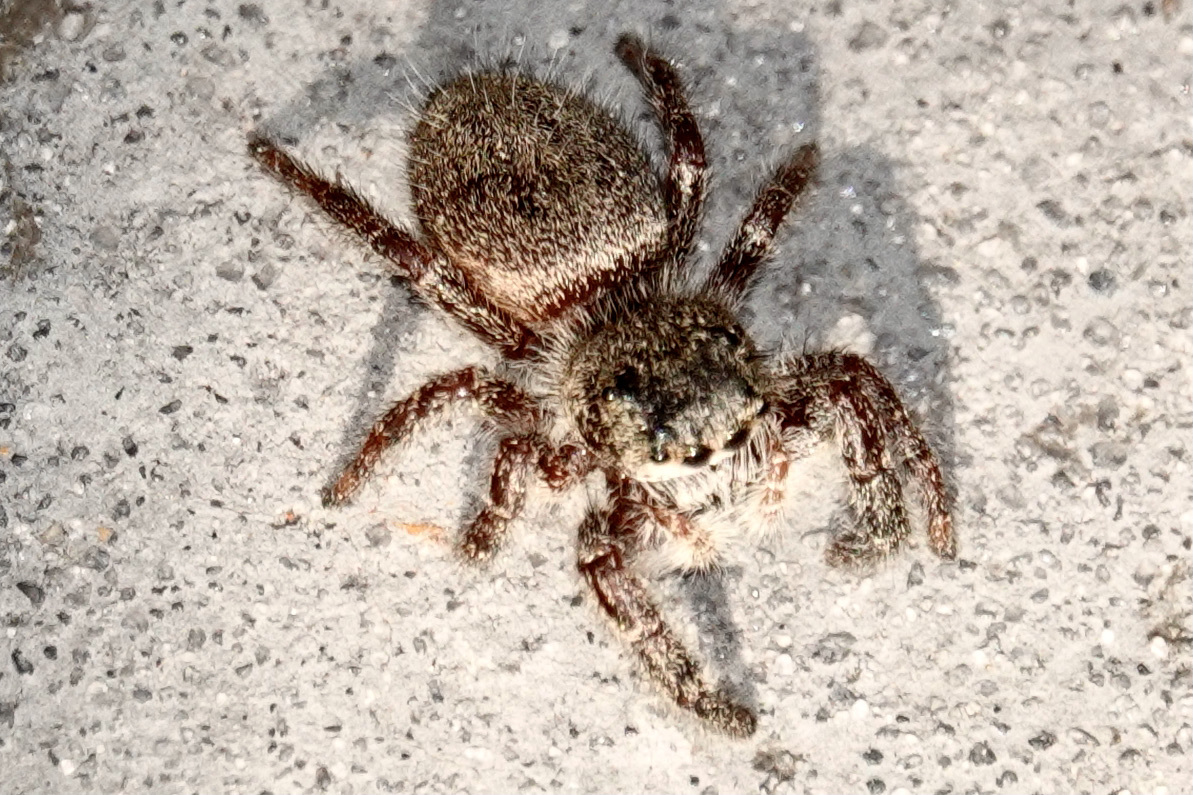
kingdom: Animalia
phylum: Arthropoda
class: Arachnida
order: Araneae
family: Salticidae
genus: Phidippus
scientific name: Phidippus princeps
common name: Grayish jumping spider
